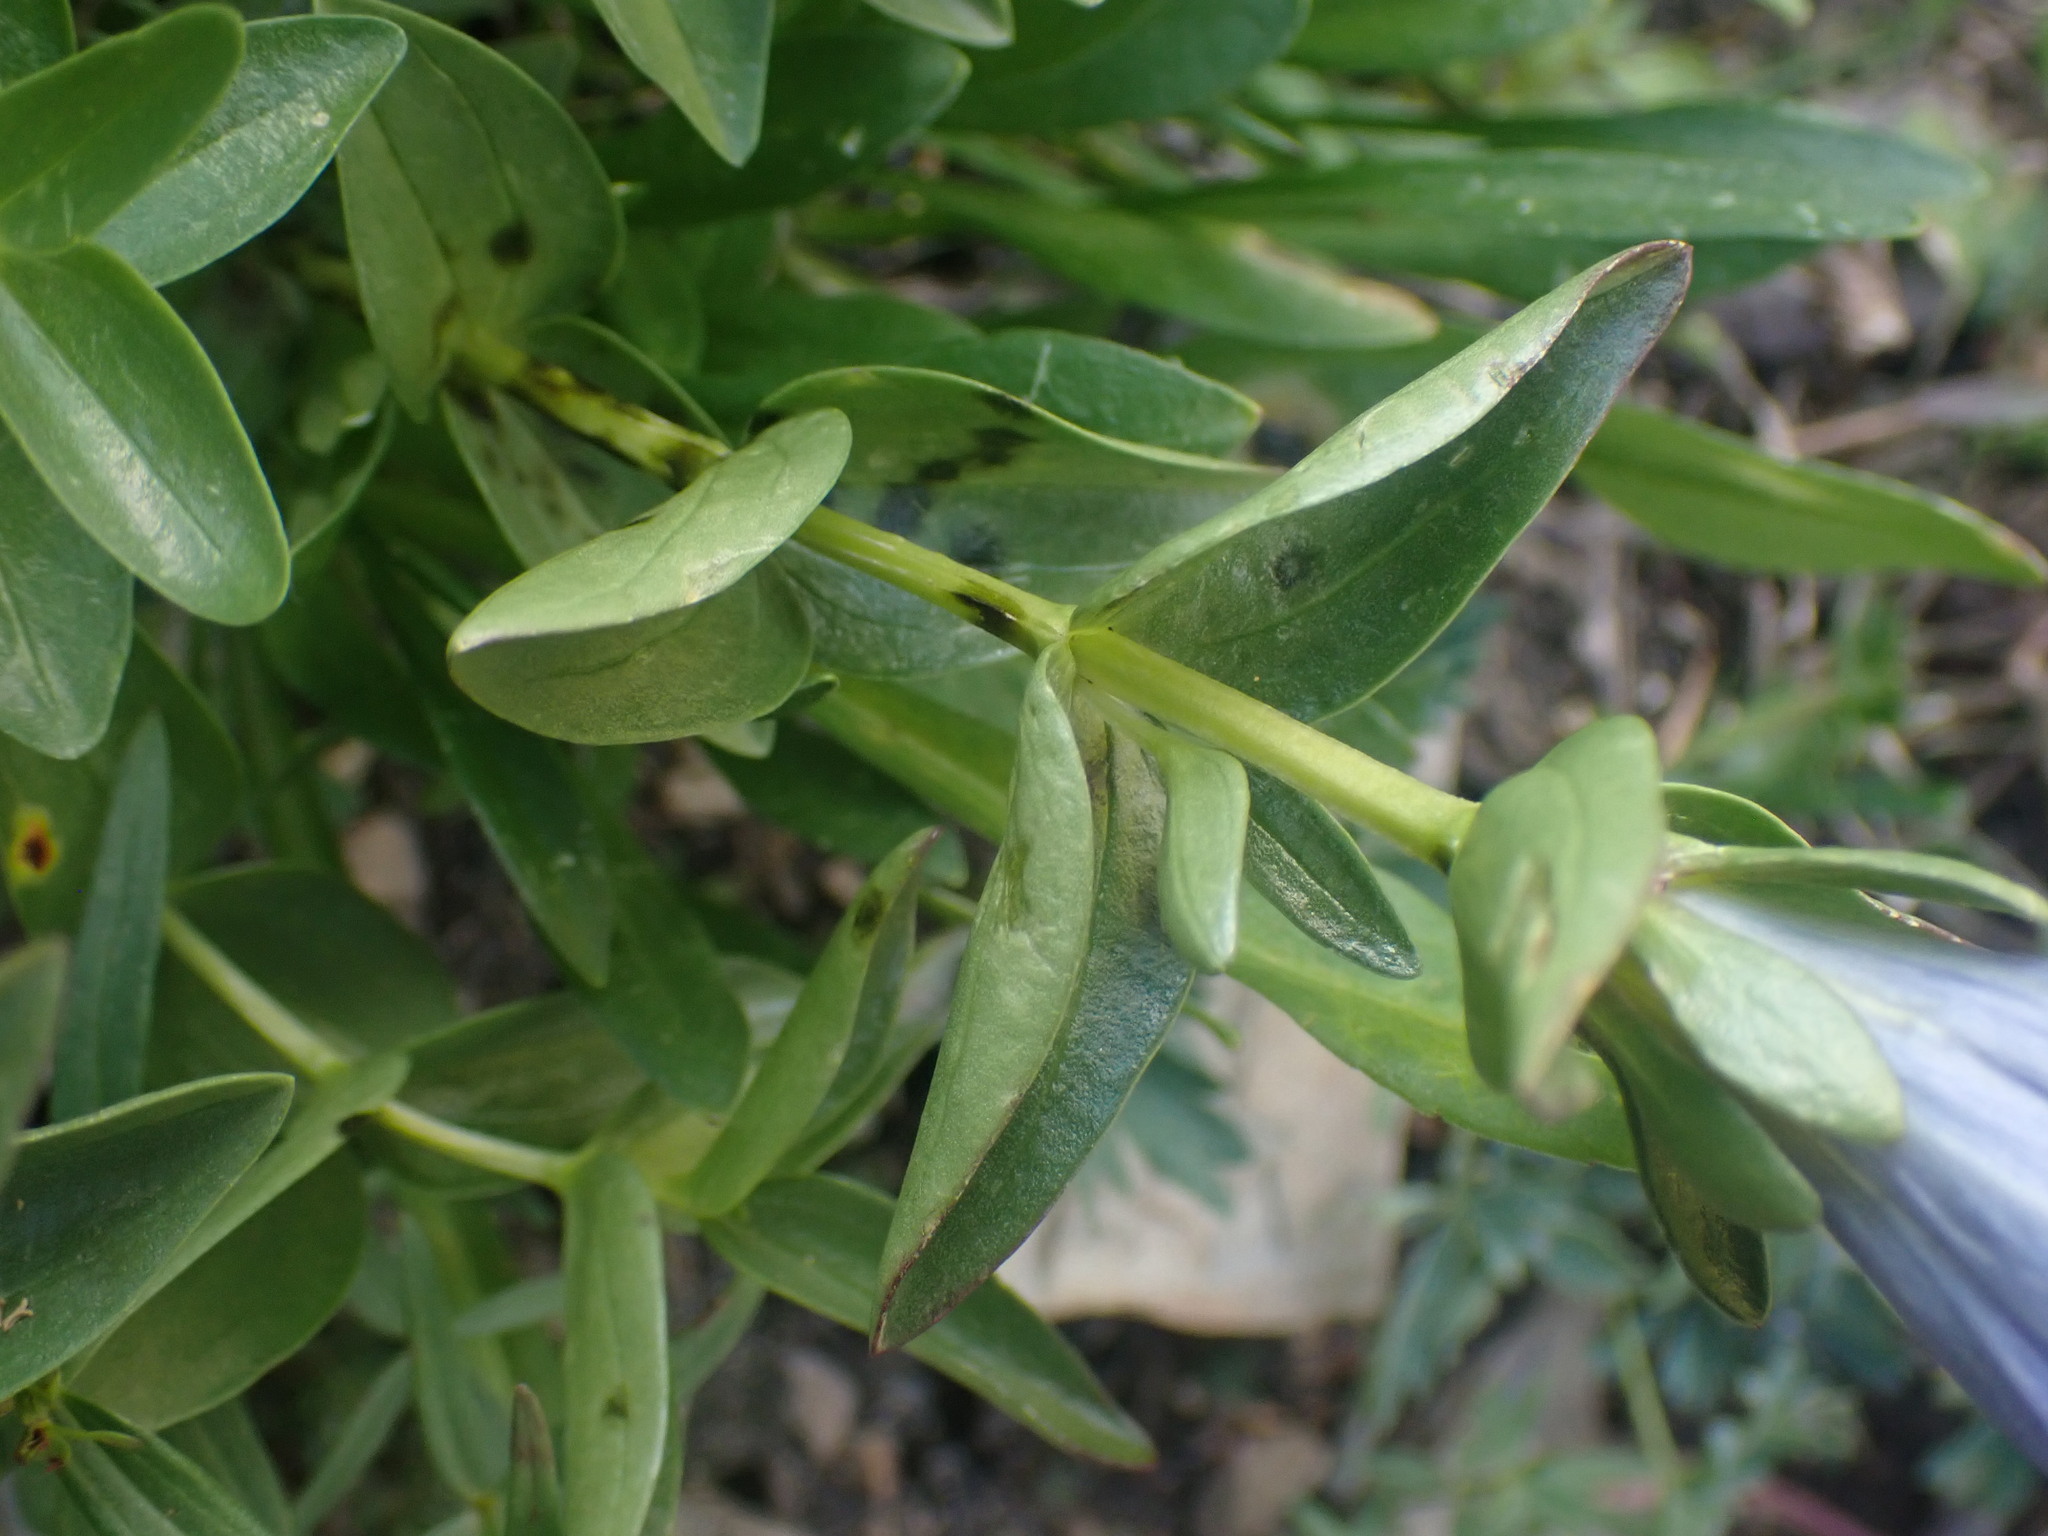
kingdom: Plantae
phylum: Tracheophyta
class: Magnoliopsida
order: Gentianales
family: Gentianaceae
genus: Gentiana
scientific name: Gentiana calycosa
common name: Rainier pleated gentian
